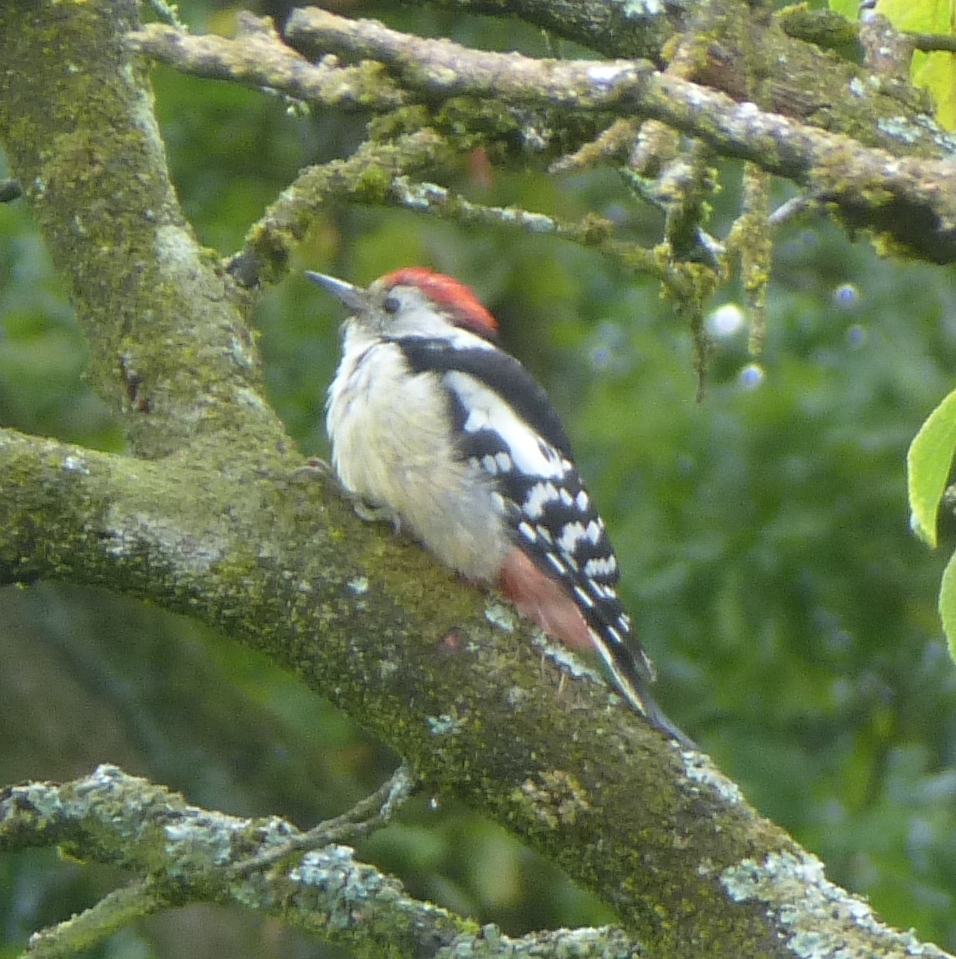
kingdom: Animalia
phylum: Chordata
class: Aves
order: Piciformes
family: Picidae
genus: Dendrocoptes
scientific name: Dendrocoptes medius
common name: Middle spotted woodpecker
